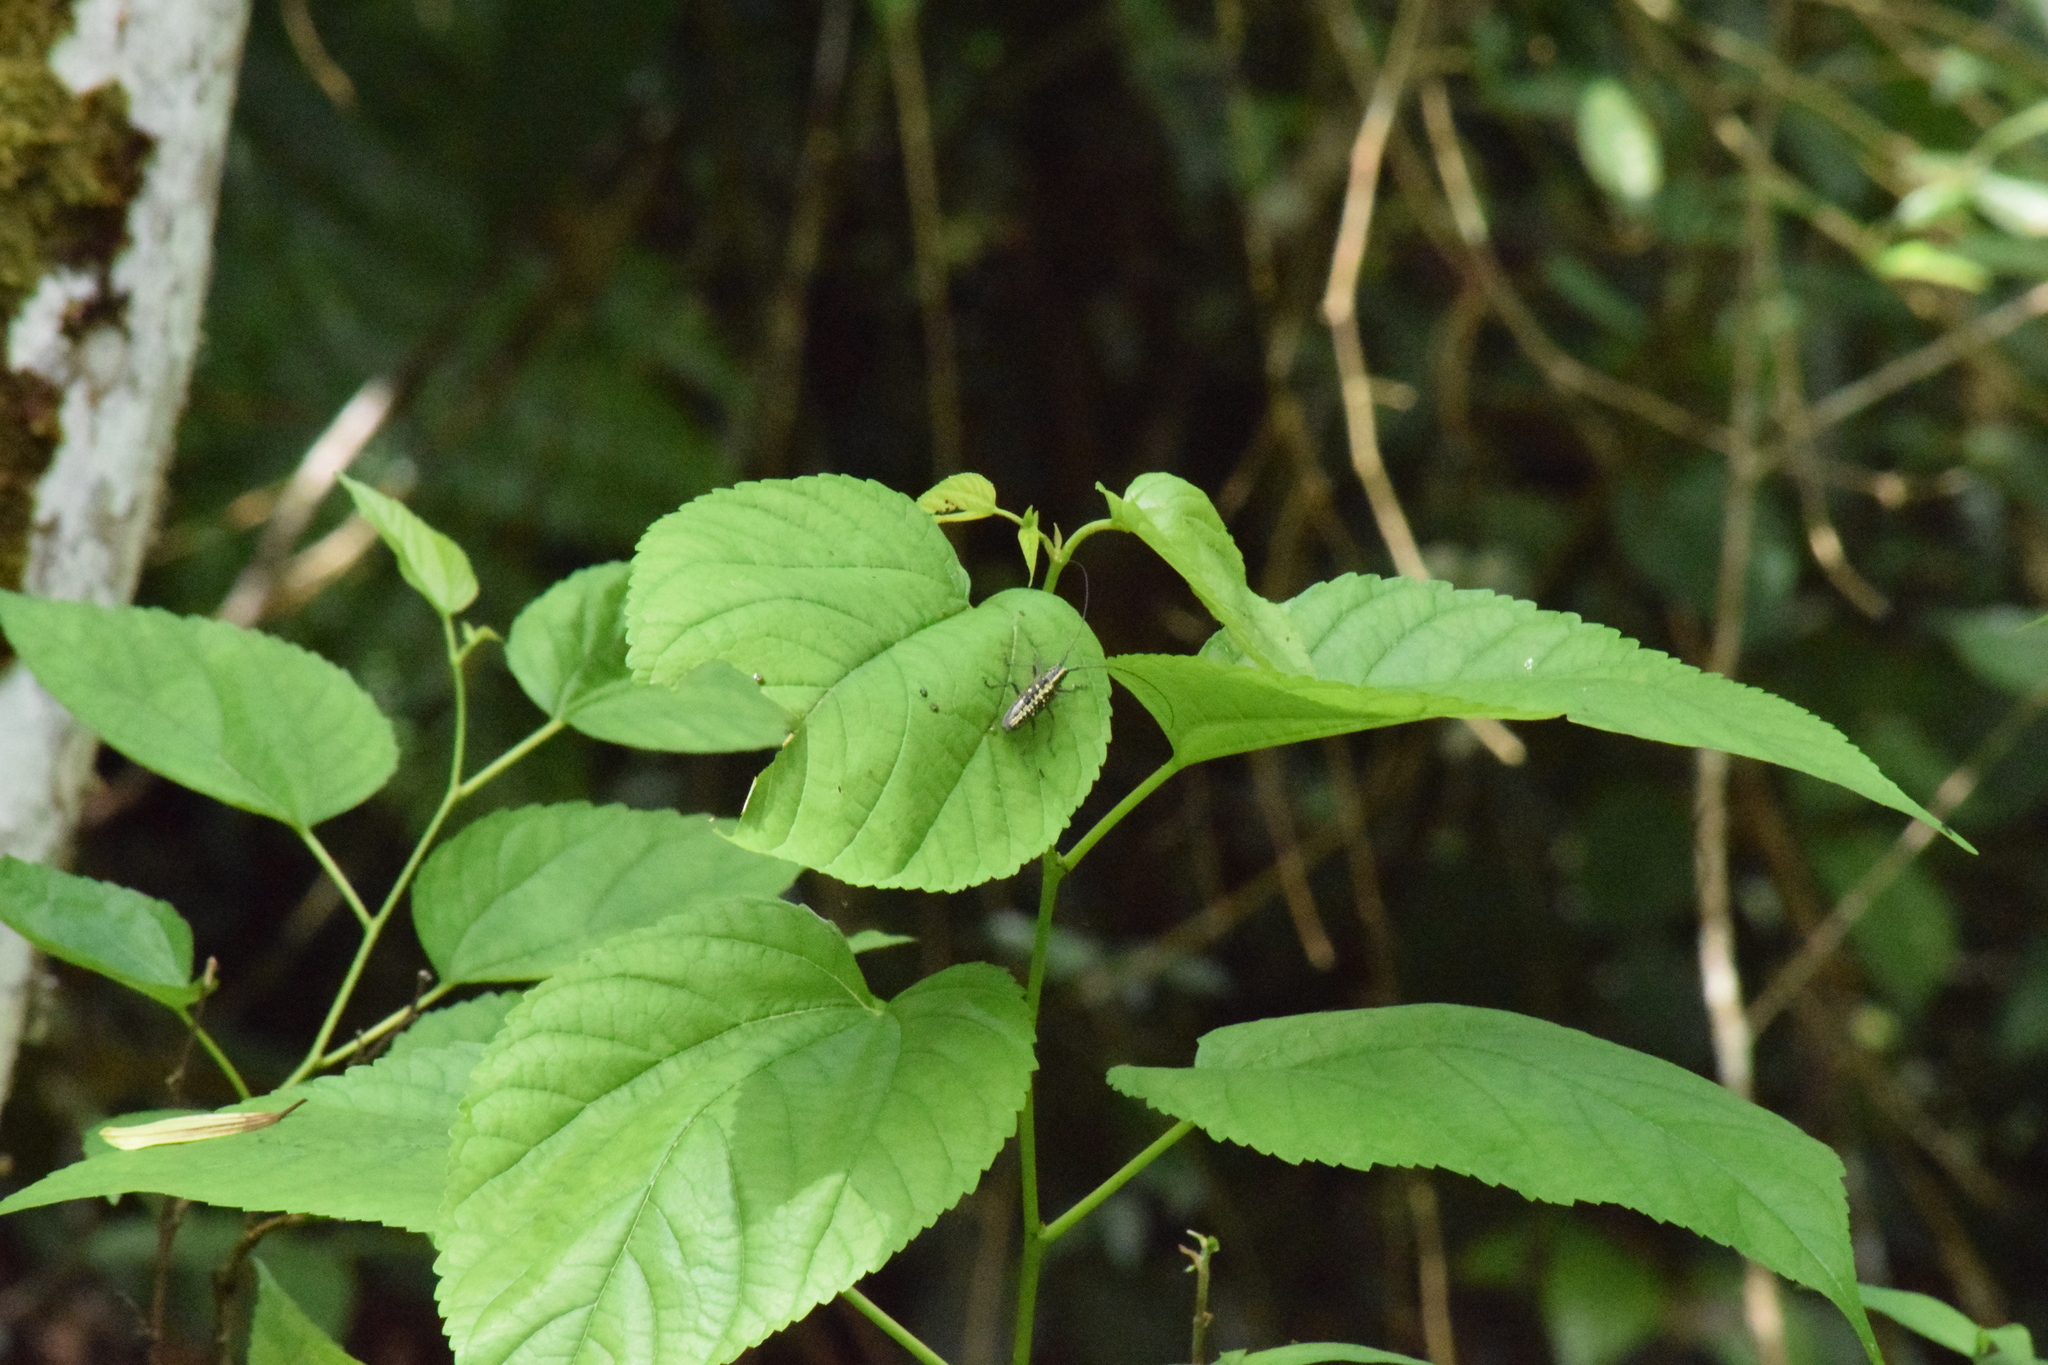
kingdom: Animalia
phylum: Arthropoda
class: Insecta
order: Coleoptera
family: Cerambycidae
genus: Taeniotes
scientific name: Taeniotes amazonum
